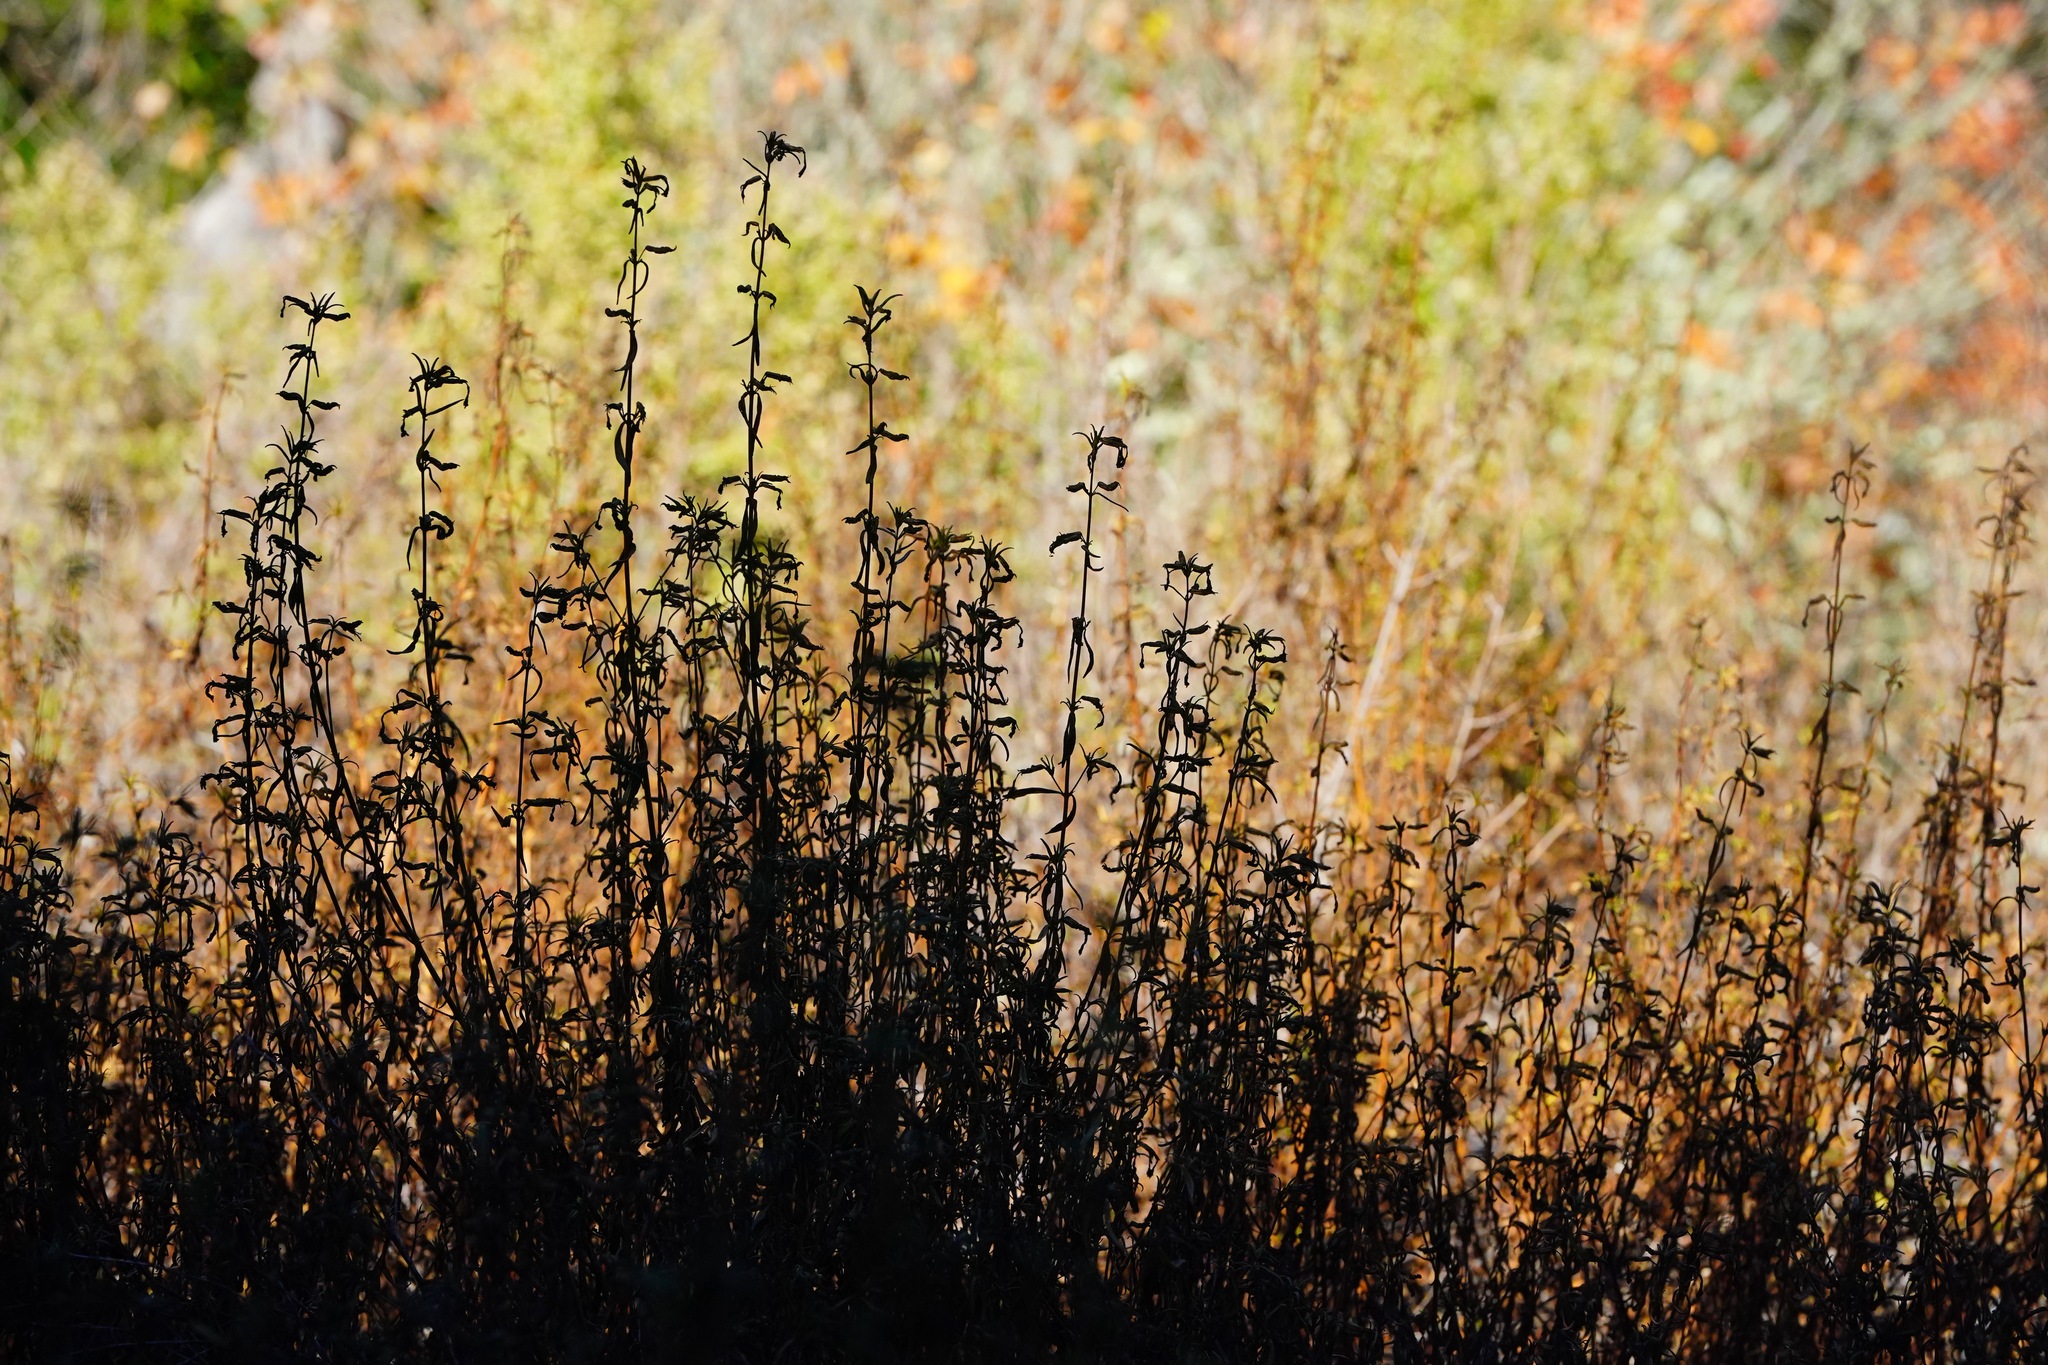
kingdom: Plantae
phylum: Tracheophyta
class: Magnoliopsida
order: Lamiales
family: Phrymaceae
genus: Diplacus
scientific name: Diplacus aurantiacus
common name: Bush monkey-flower
